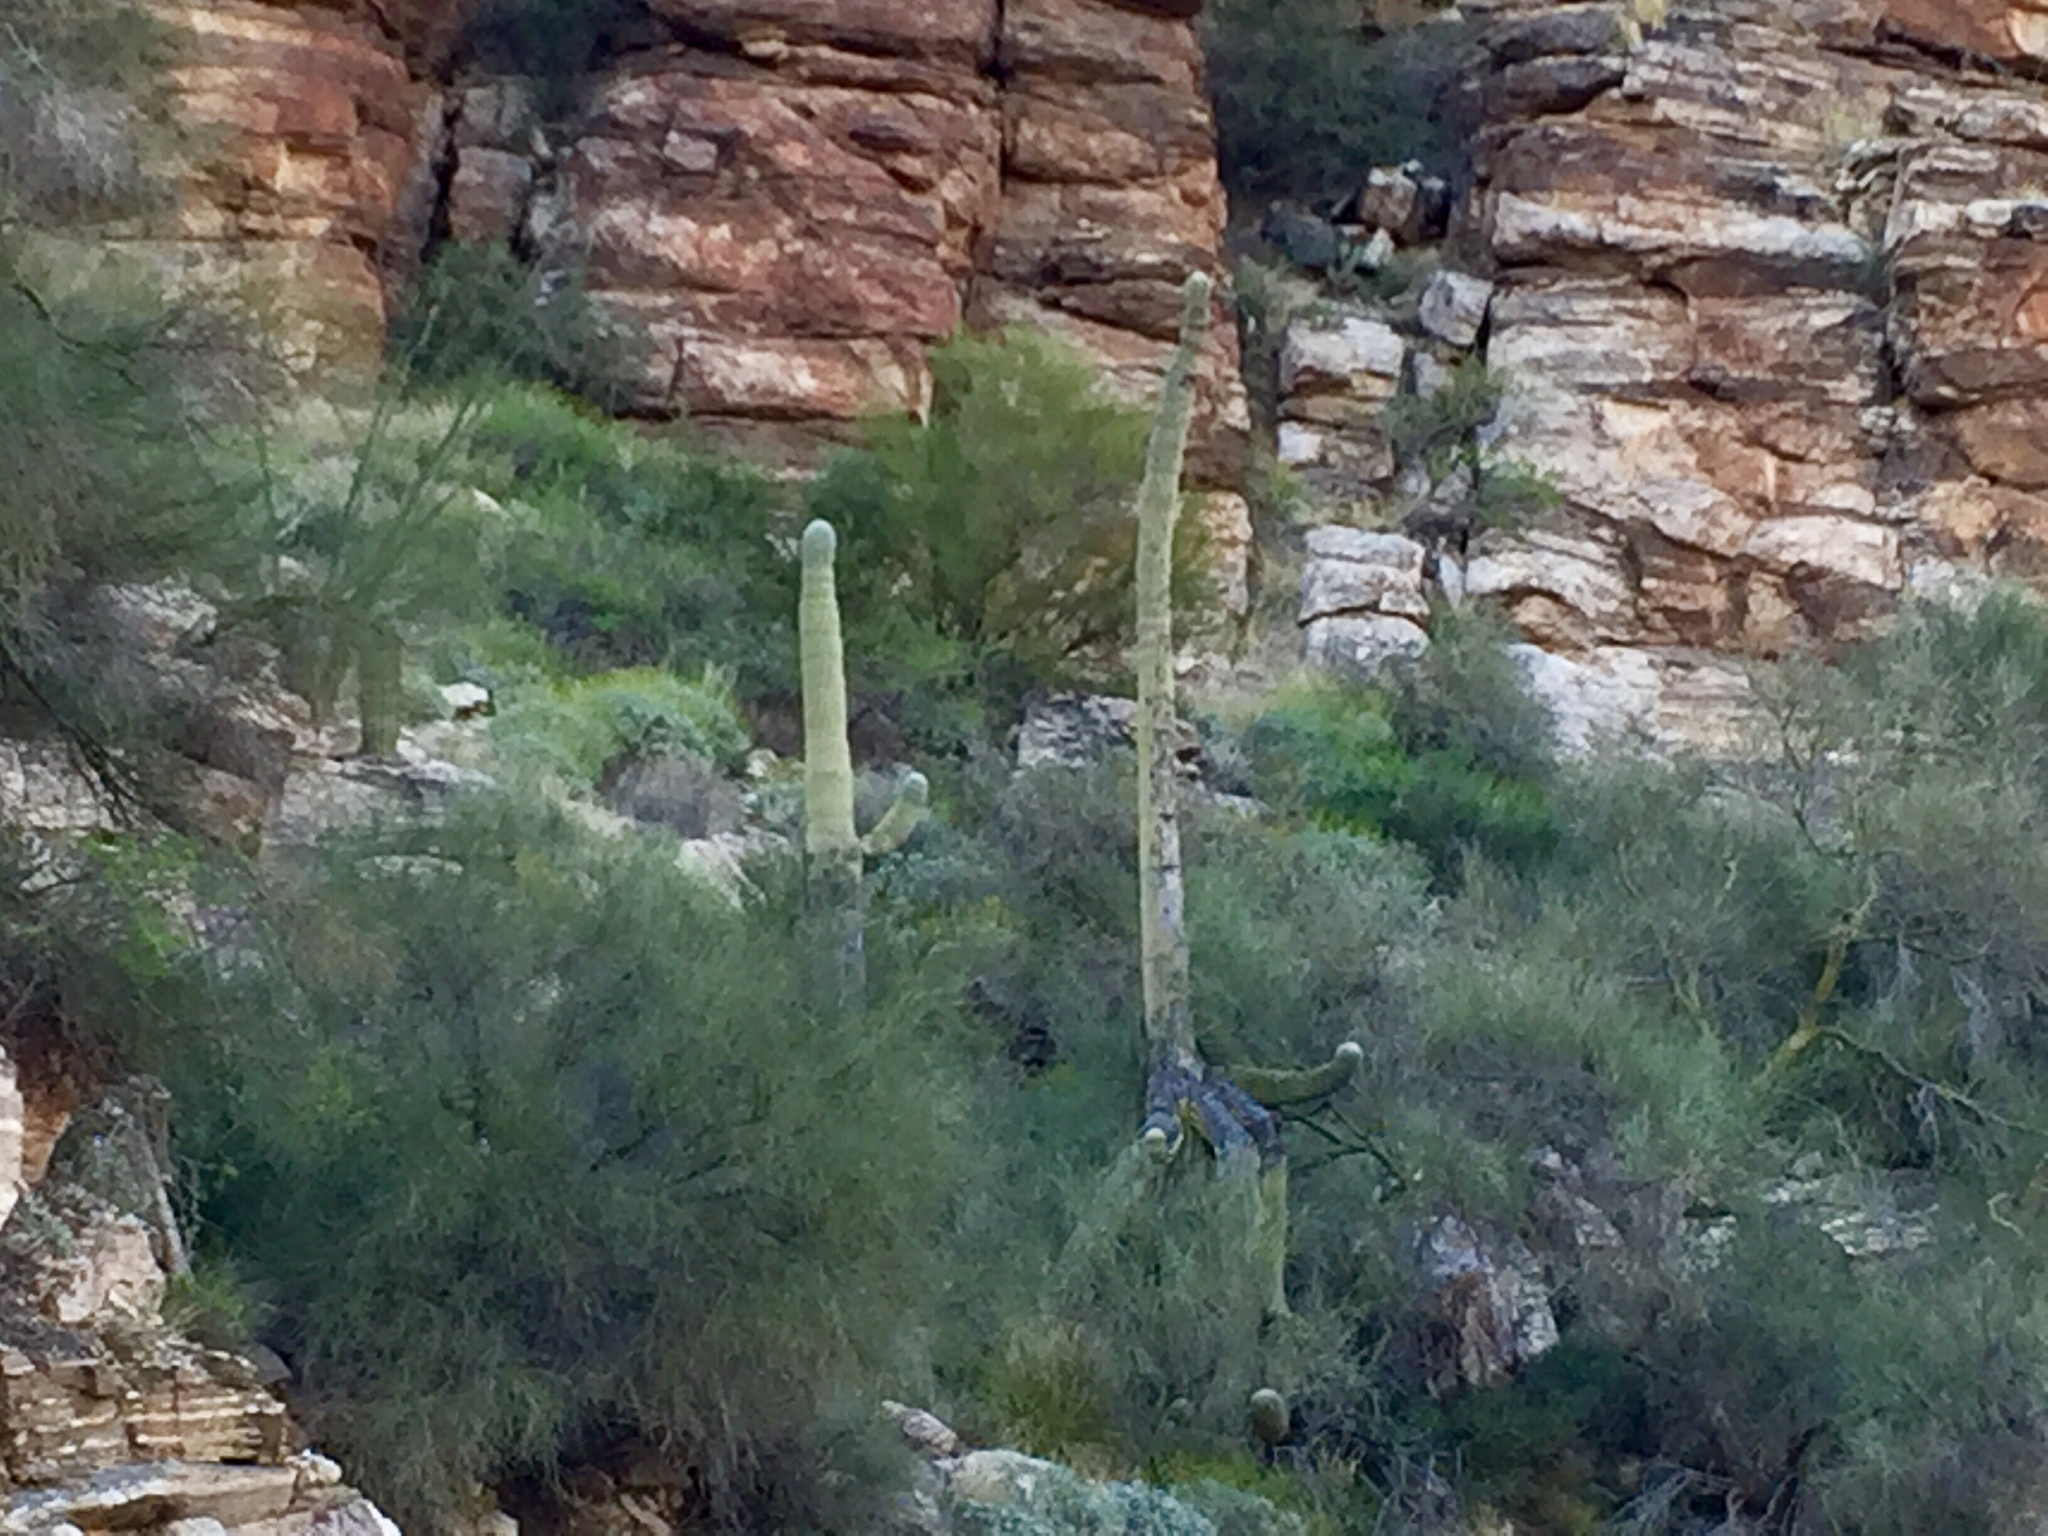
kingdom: Plantae
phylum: Tracheophyta
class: Magnoliopsida
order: Fabales
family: Fabaceae
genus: Parkinsonia
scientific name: Parkinsonia microphylla
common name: Yellow paloverde
